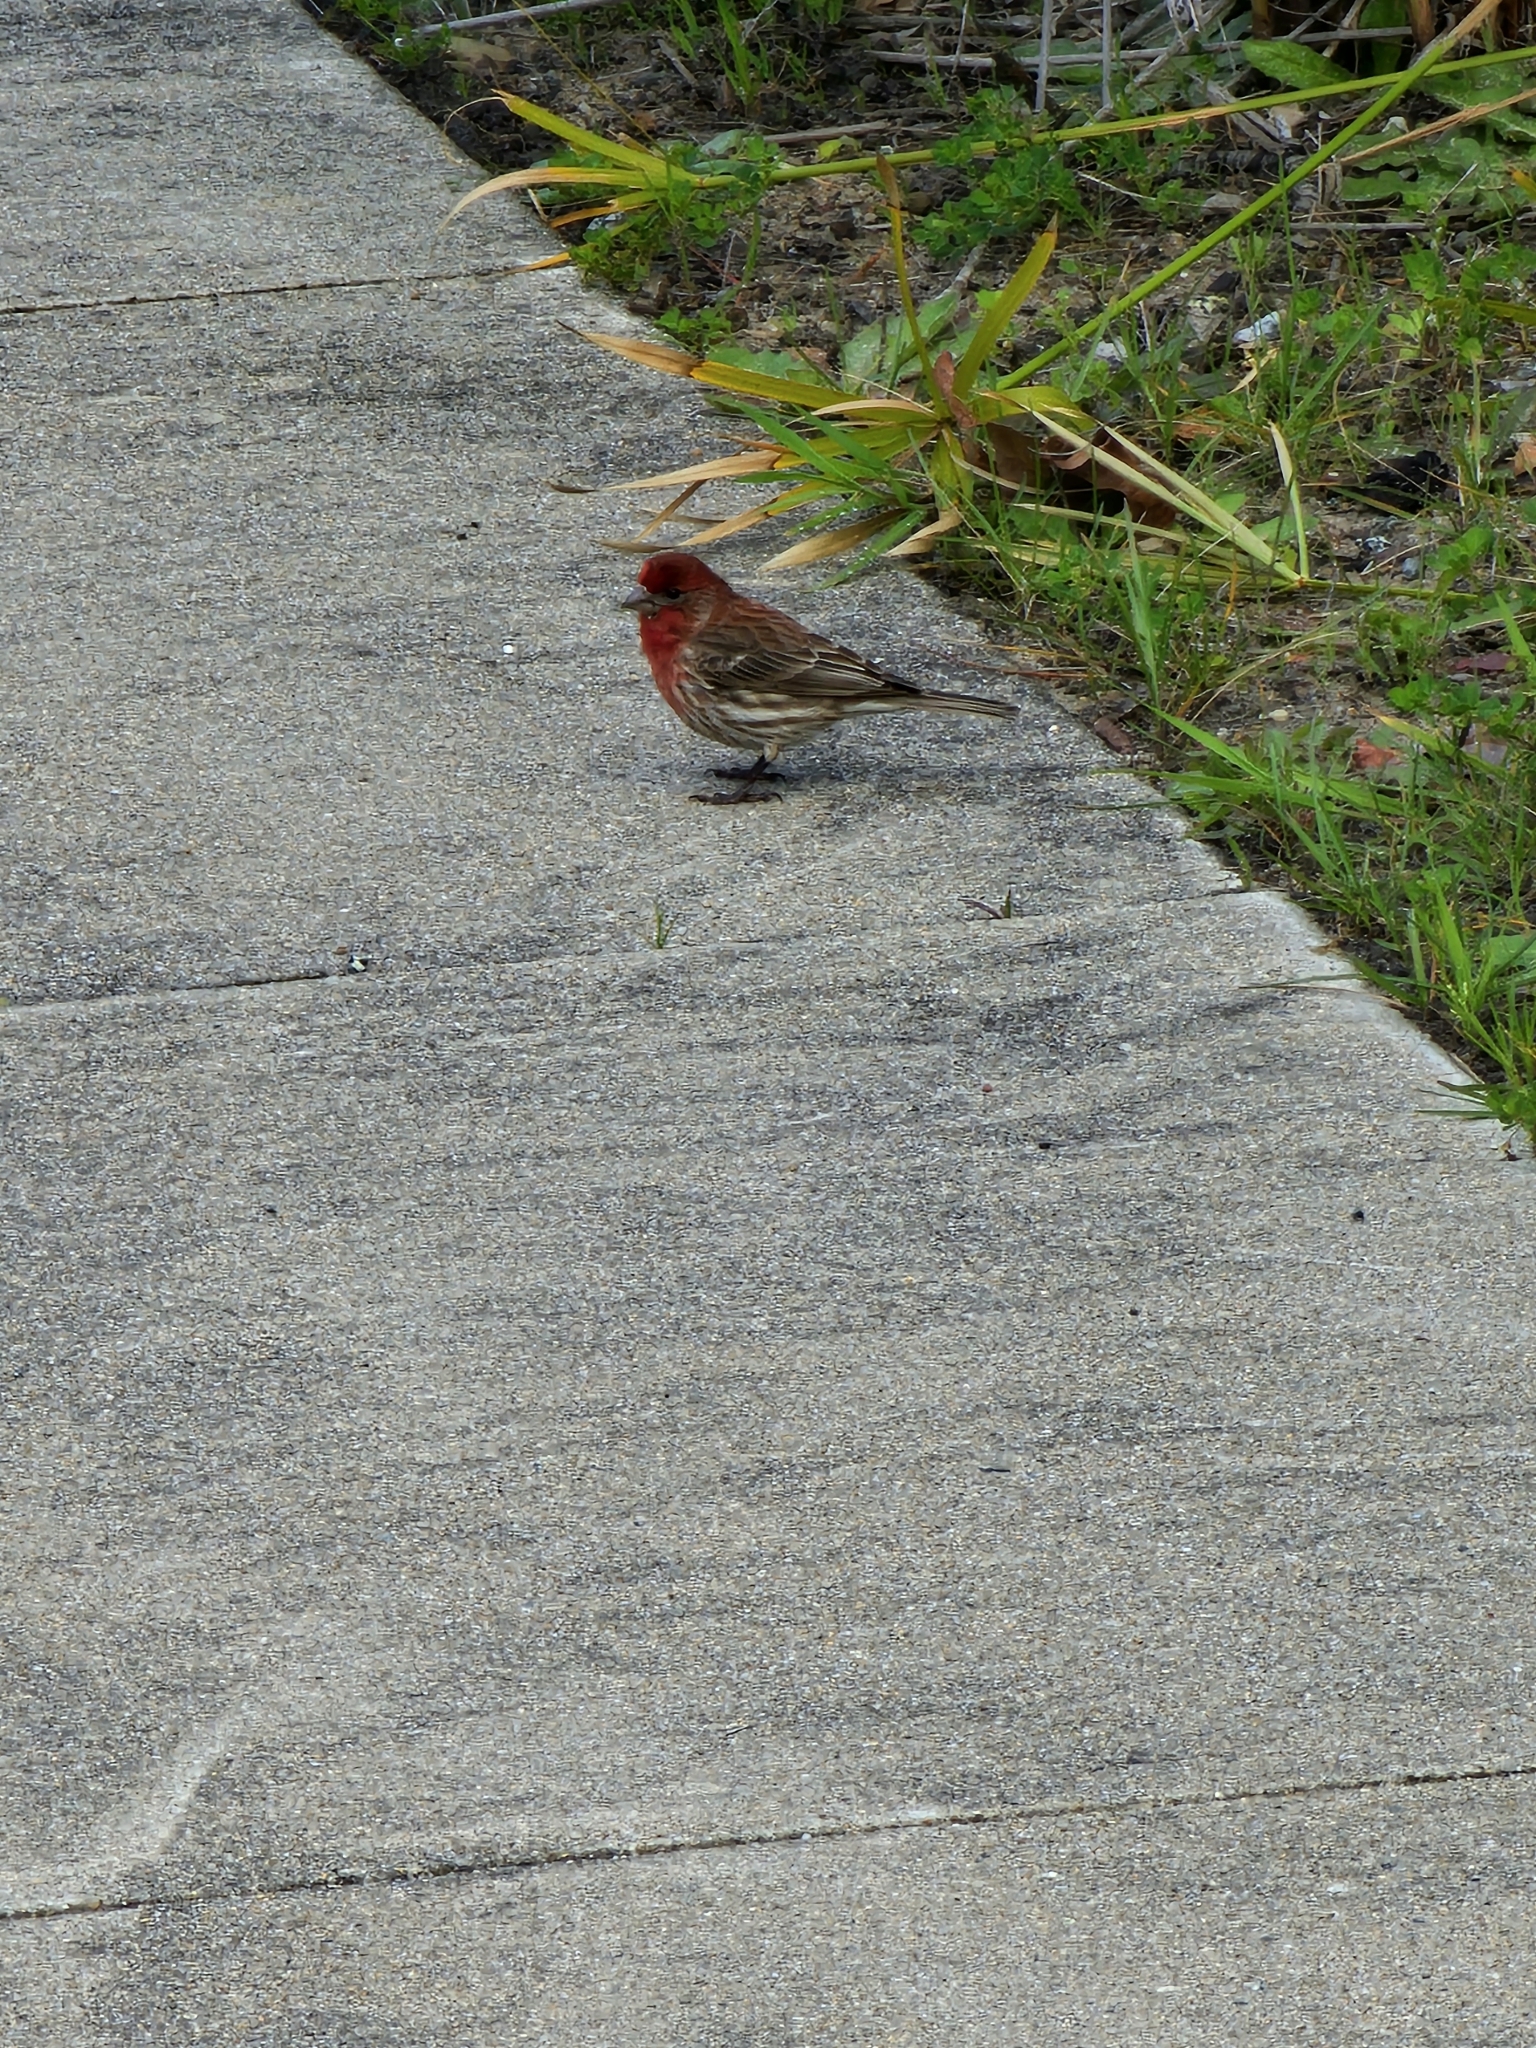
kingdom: Animalia
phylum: Chordata
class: Aves
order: Passeriformes
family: Fringillidae
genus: Haemorhous
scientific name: Haemorhous mexicanus
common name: House finch
